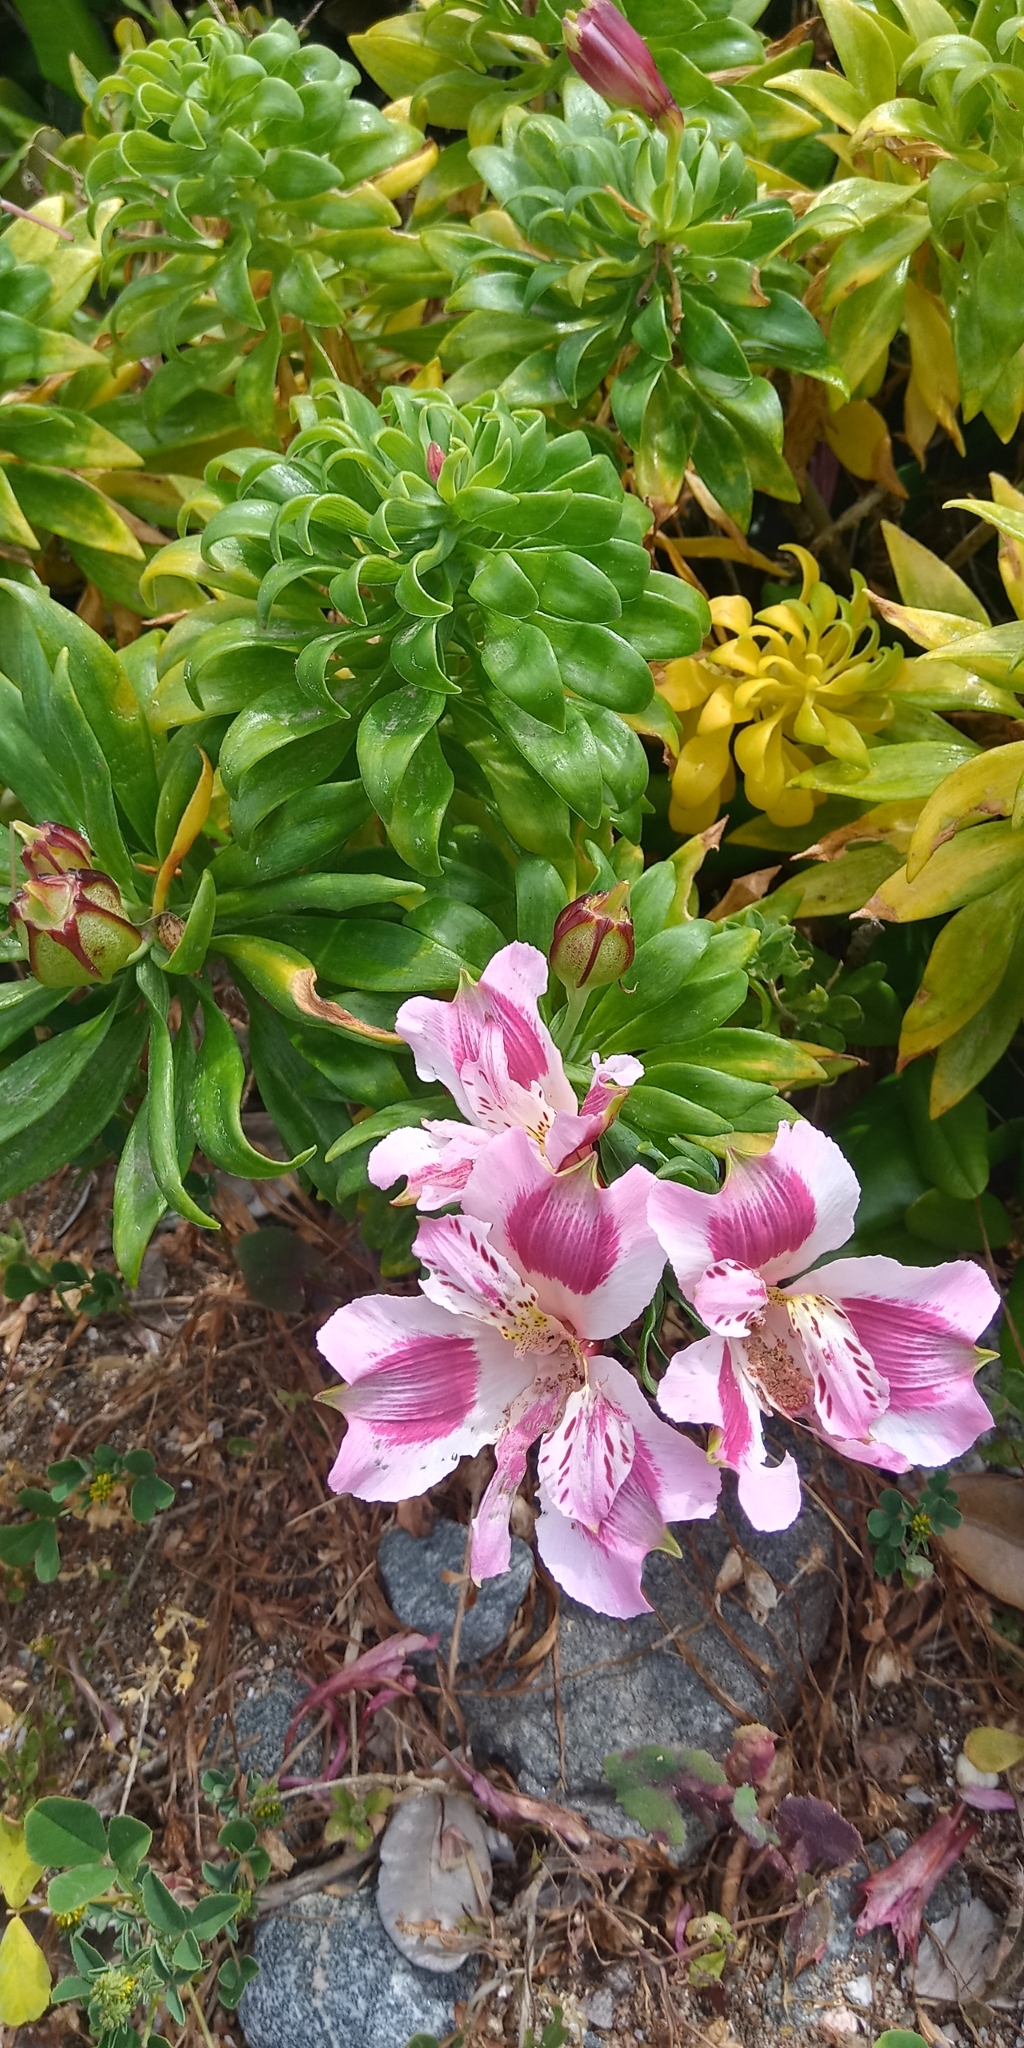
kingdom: Plantae
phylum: Tracheophyta
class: Liliopsida
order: Liliales
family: Alstroemeriaceae
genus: Alstroemeria
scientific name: Alstroemeria pelegrina
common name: Peruvian-lily
